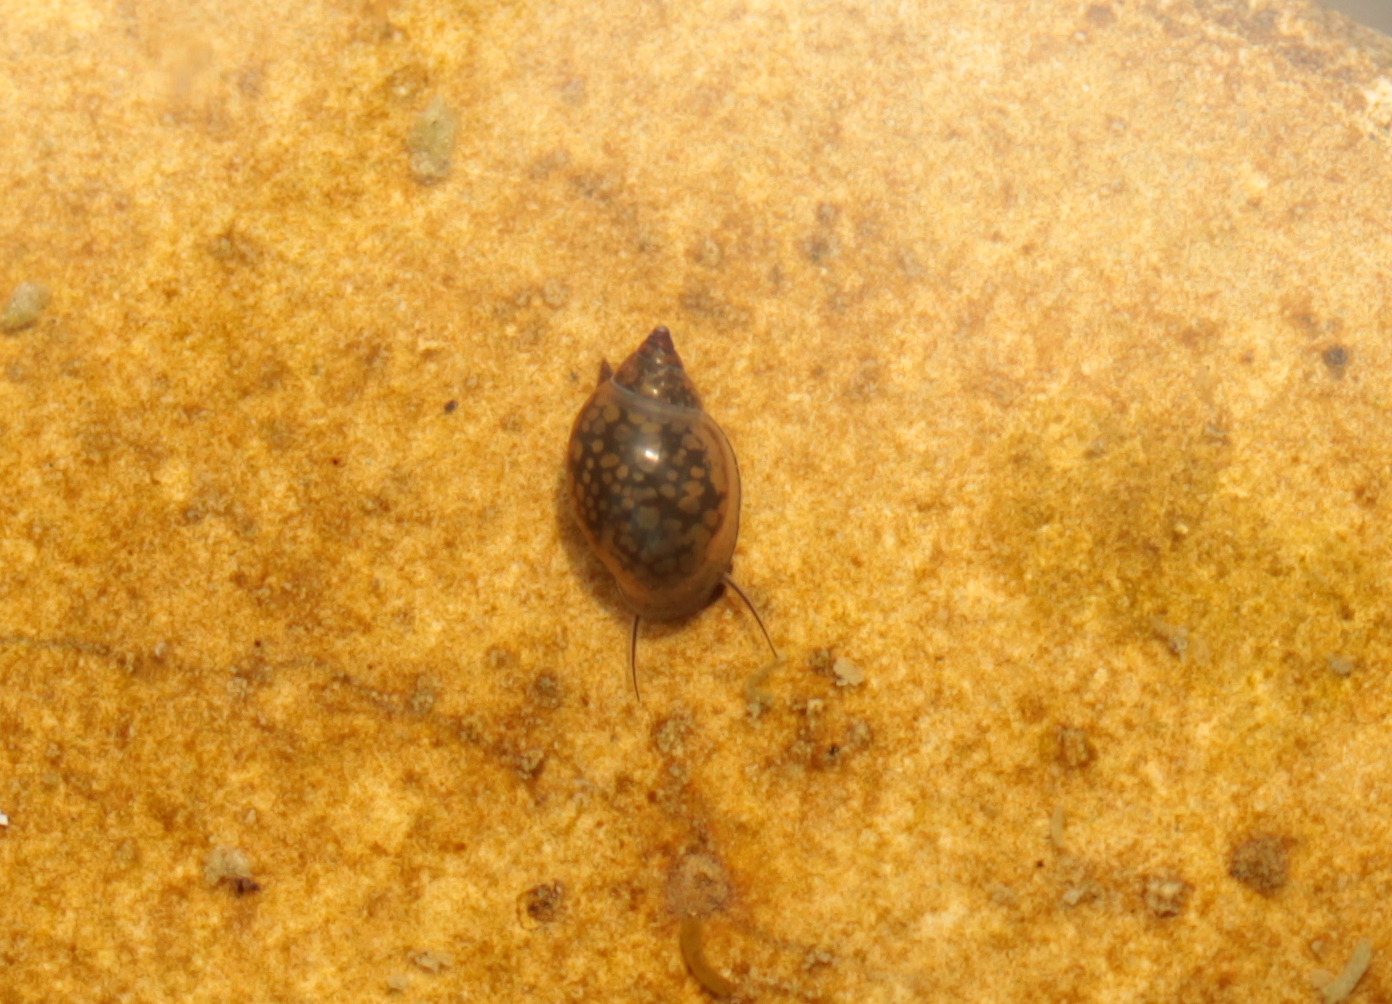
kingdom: Animalia
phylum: Mollusca
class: Gastropoda
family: Physidae
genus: Physella
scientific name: Physella acuta
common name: European physa
